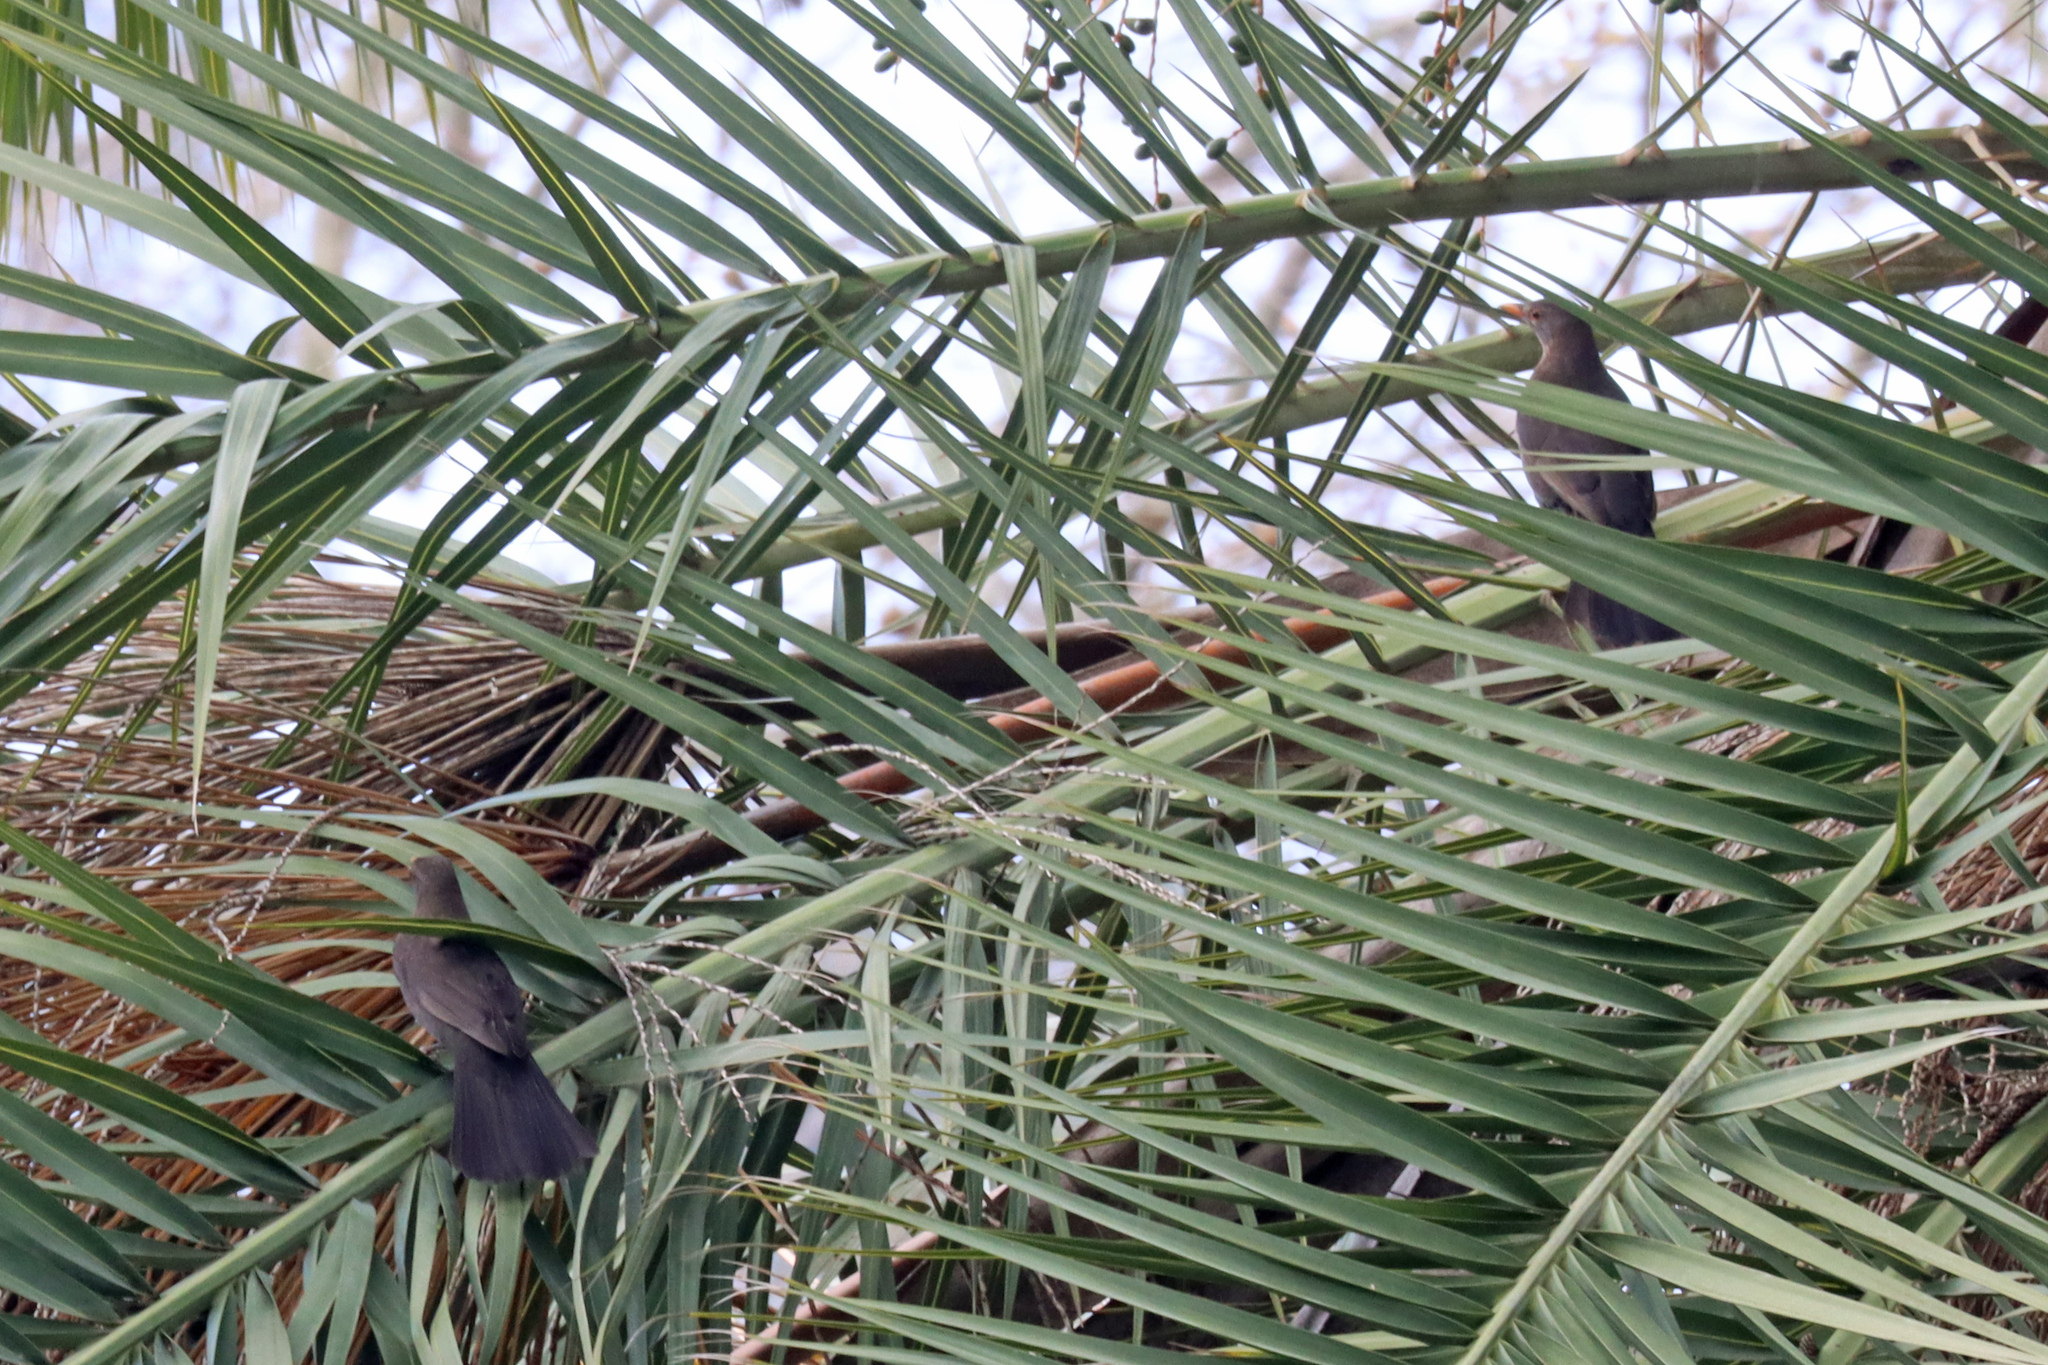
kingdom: Animalia
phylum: Chordata
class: Aves
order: Passeriformes
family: Turdidae
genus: Turdus
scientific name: Turdus merula
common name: Common blackbird
